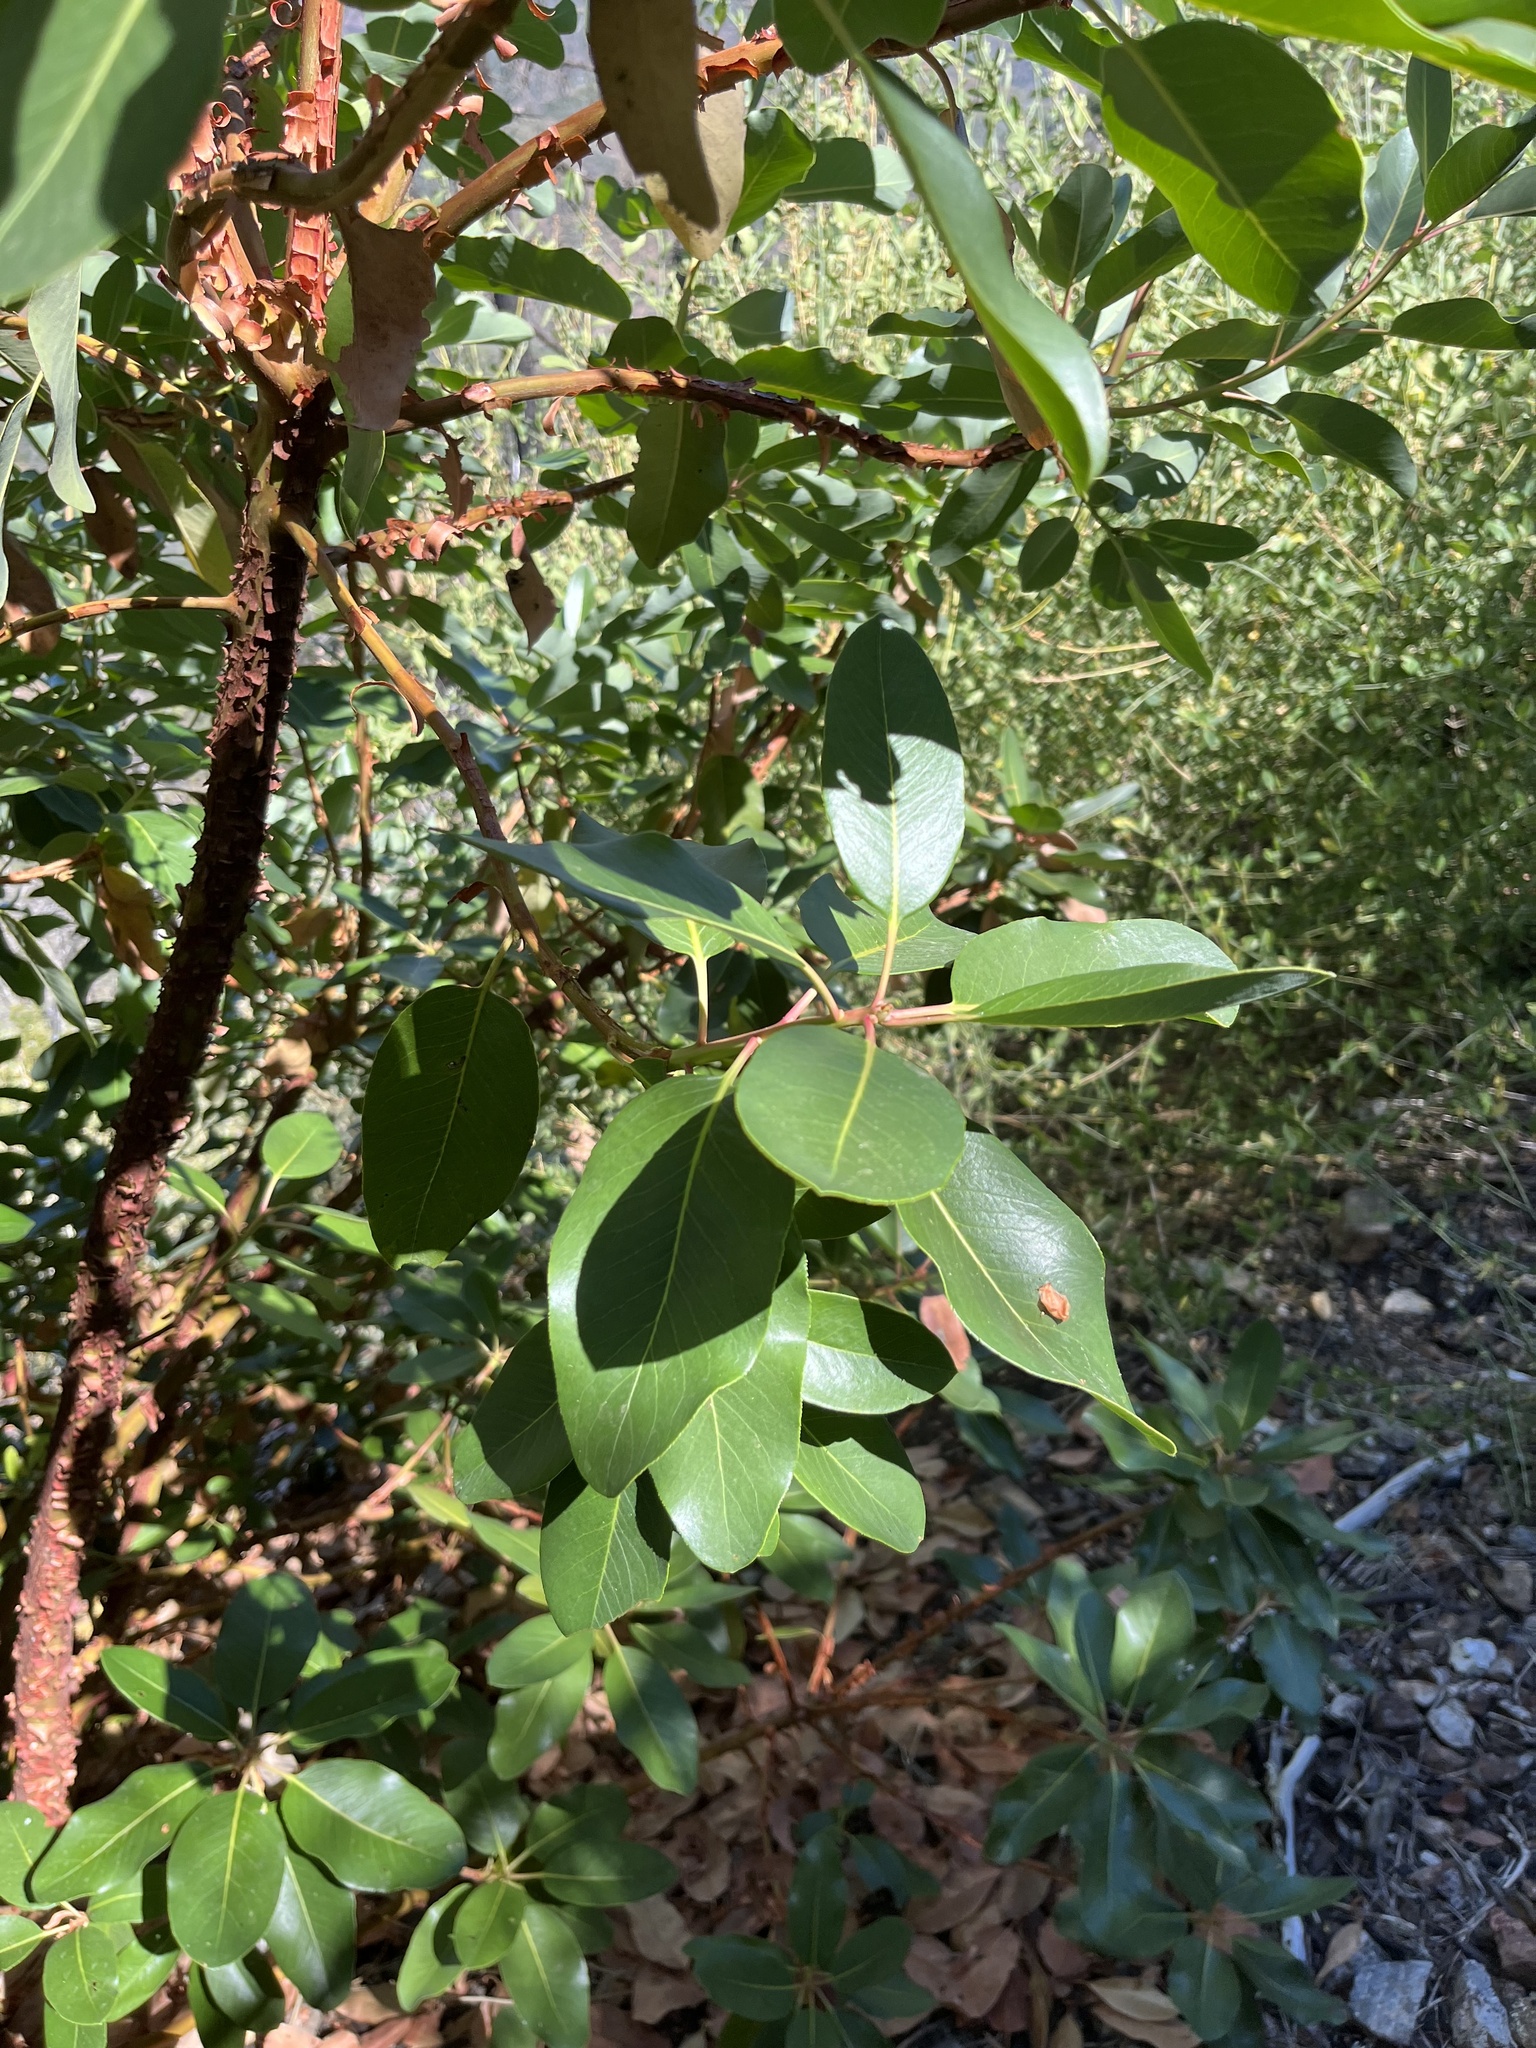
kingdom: Plantae
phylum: Tracheophyta
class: Magnoliopsida
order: Ericales
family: Ericaceae
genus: Arbutus
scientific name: Arbutus menziesii
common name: Pacific madrone
